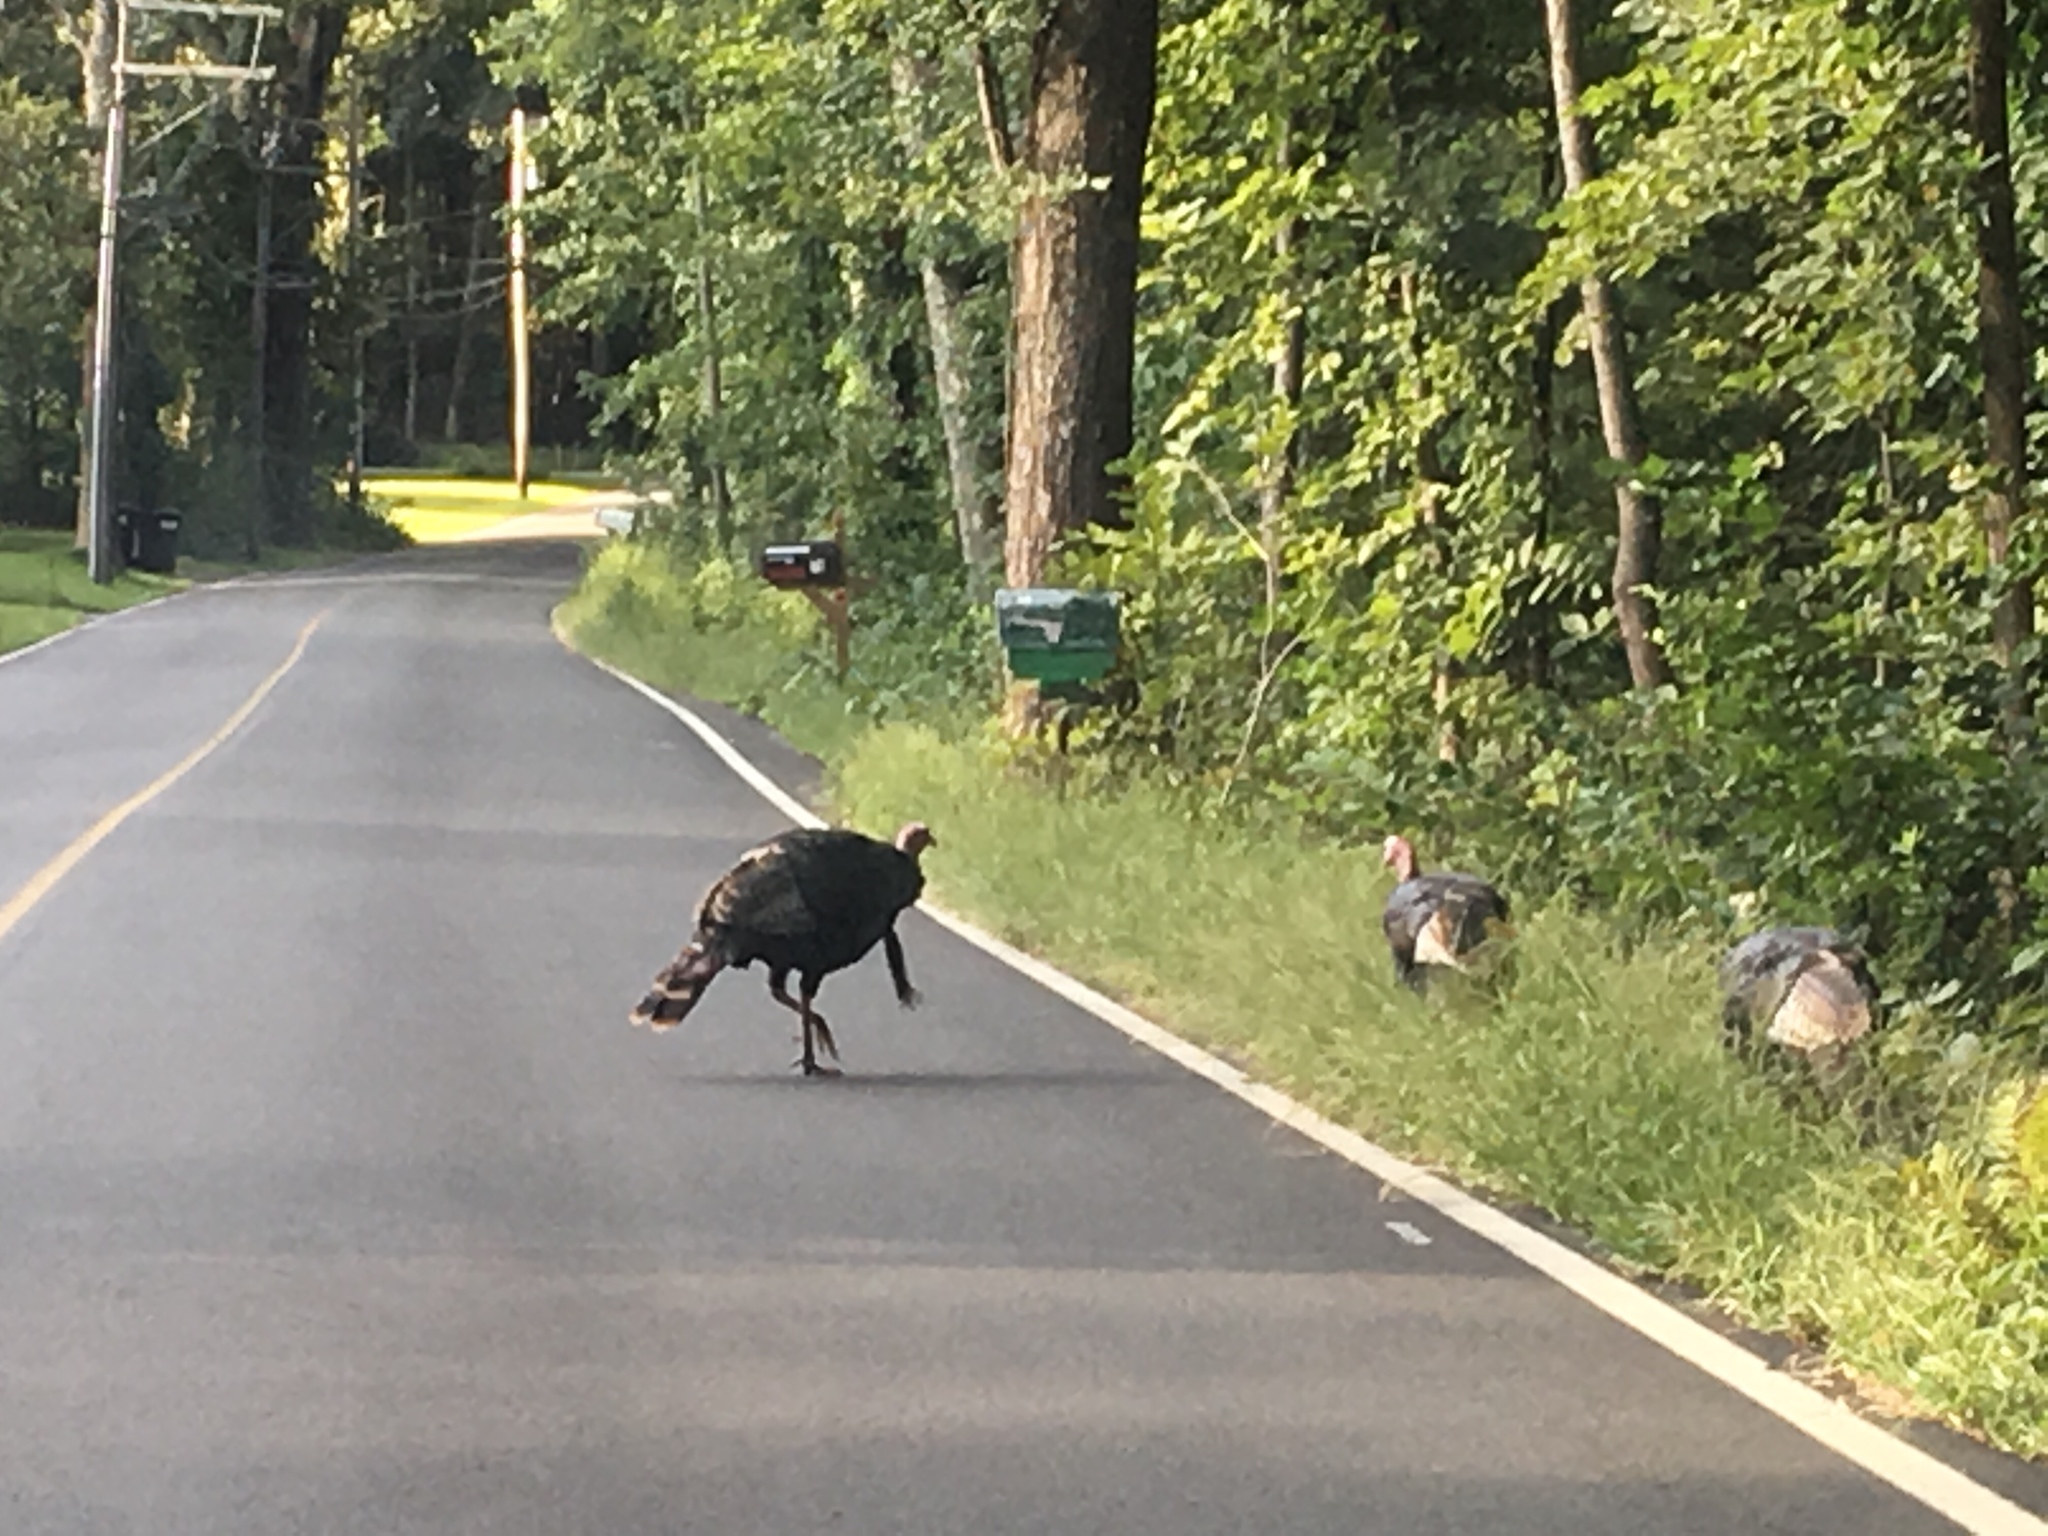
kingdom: Animalia
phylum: Chordata
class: Aves
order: Galliformes
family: Phasianidae
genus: Meleagris
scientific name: Meleagris gallopavo
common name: Wild turkey
